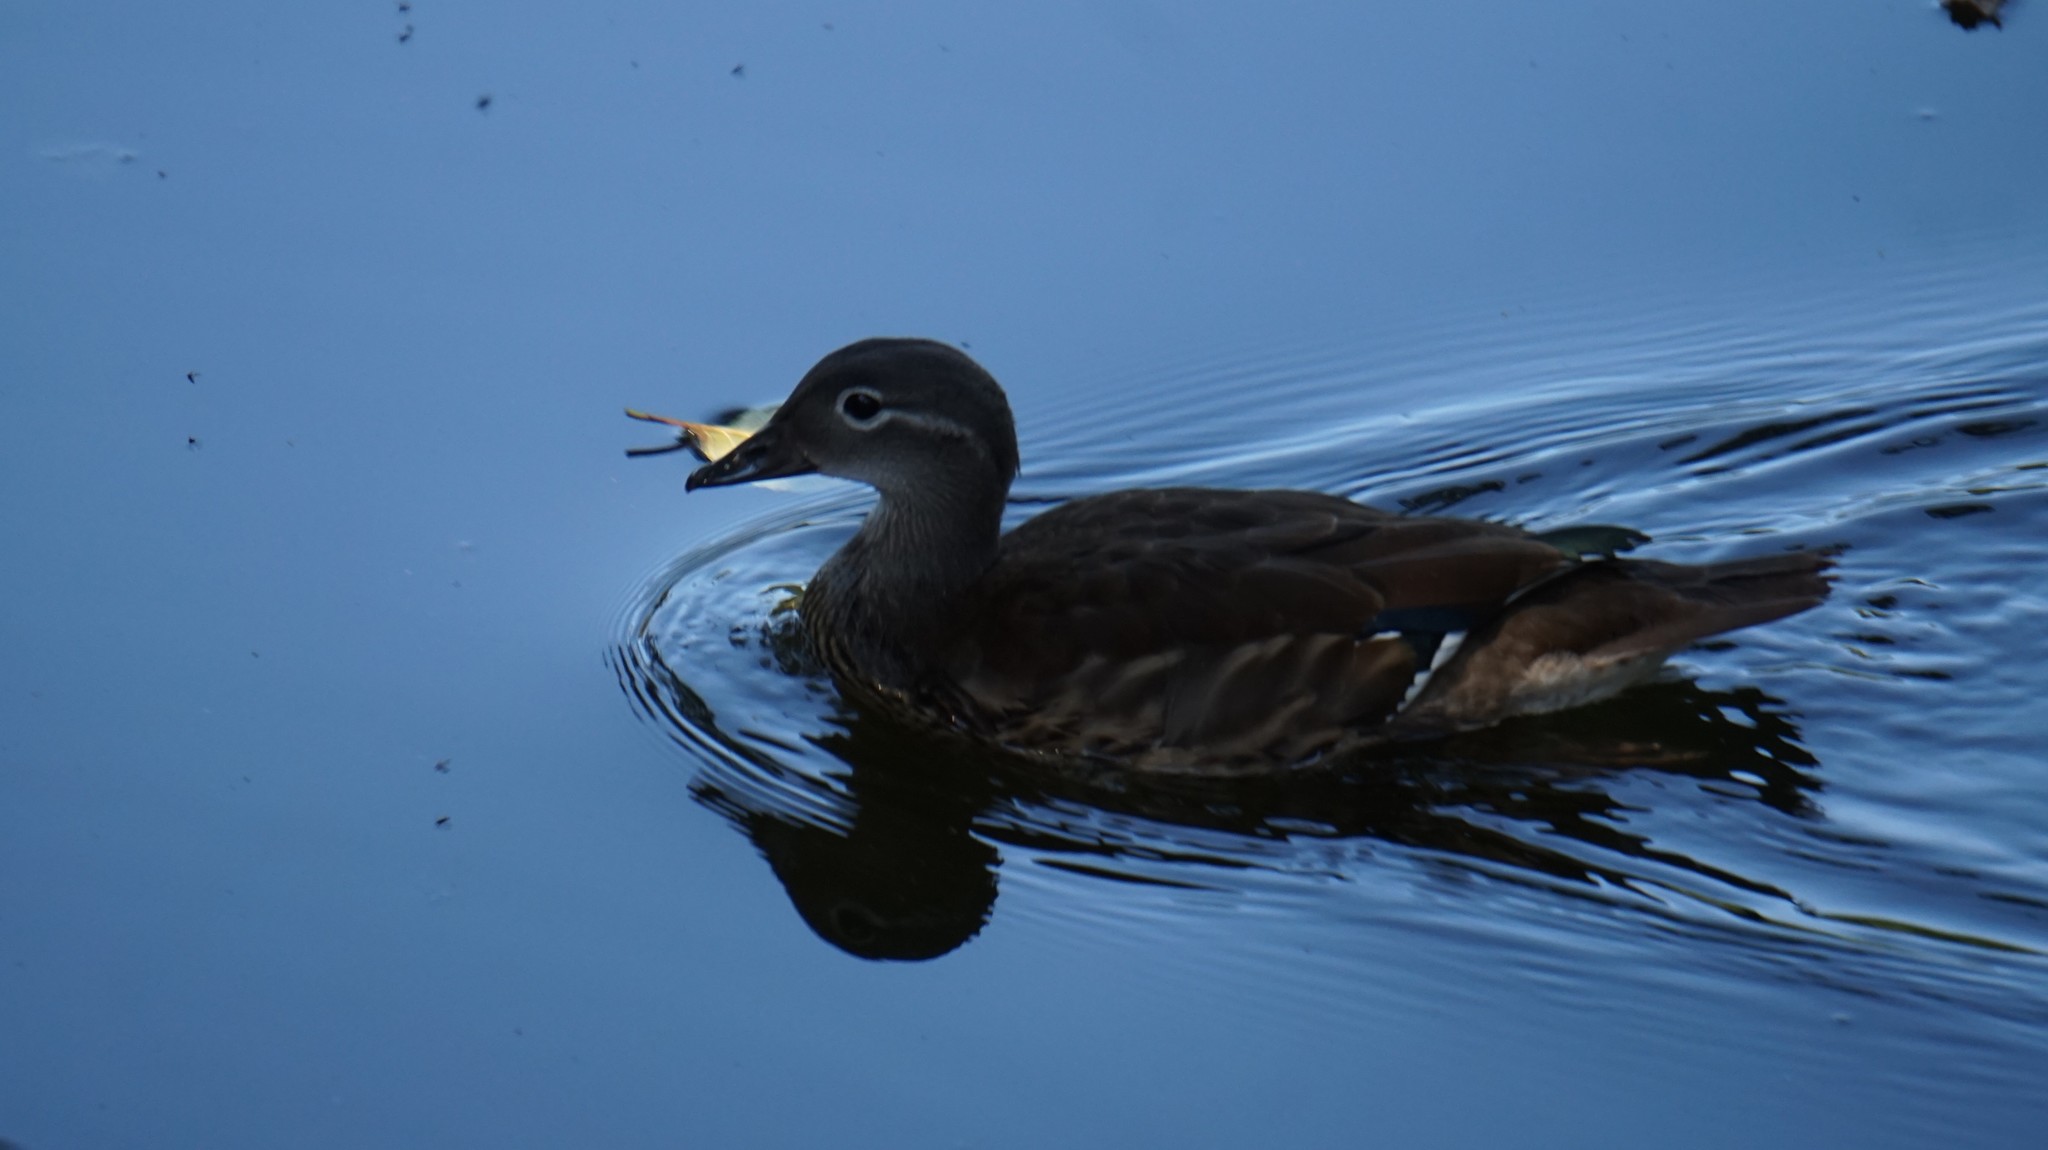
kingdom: Animalia
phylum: Chordata
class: Aves
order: Anseriformes
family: Anatidae
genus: Aix
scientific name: Aix galericulata
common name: Mandarin duck
